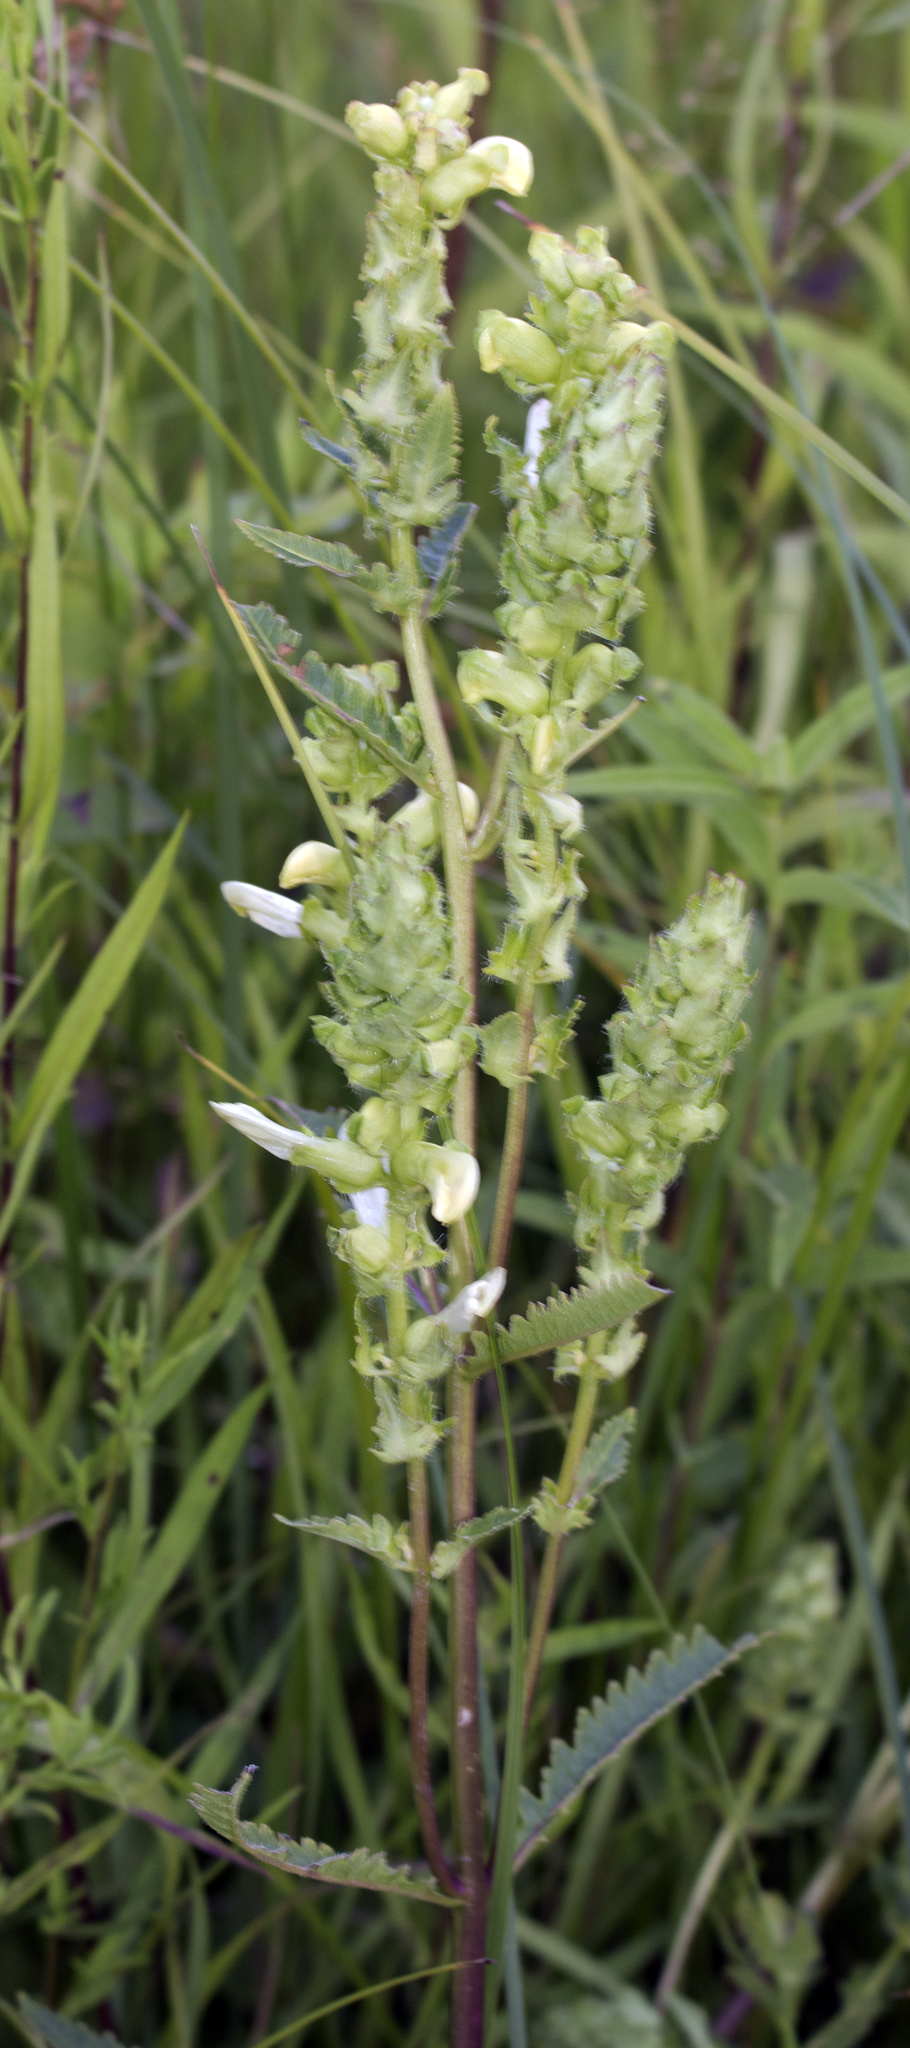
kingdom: Plantae
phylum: Tracheophyta
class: Magnoliopsida
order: Lamiales
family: Orobanchaceae
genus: Pedicularis
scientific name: Pedicularis lanceolata
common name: Swamp lousewort
